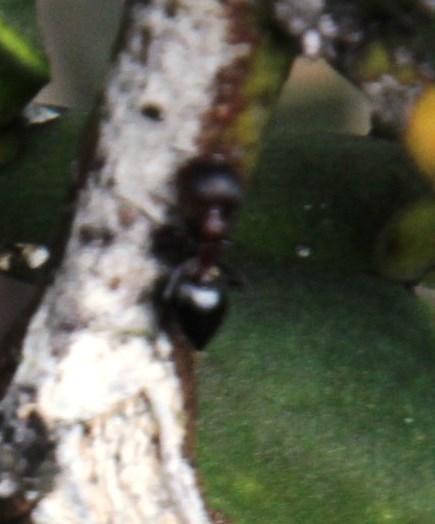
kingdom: Animalia
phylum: Arthropoda
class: Insecta
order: Hymenoptera
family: Formicidae
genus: Crematogaster
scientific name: Crematogaster peringueyi
